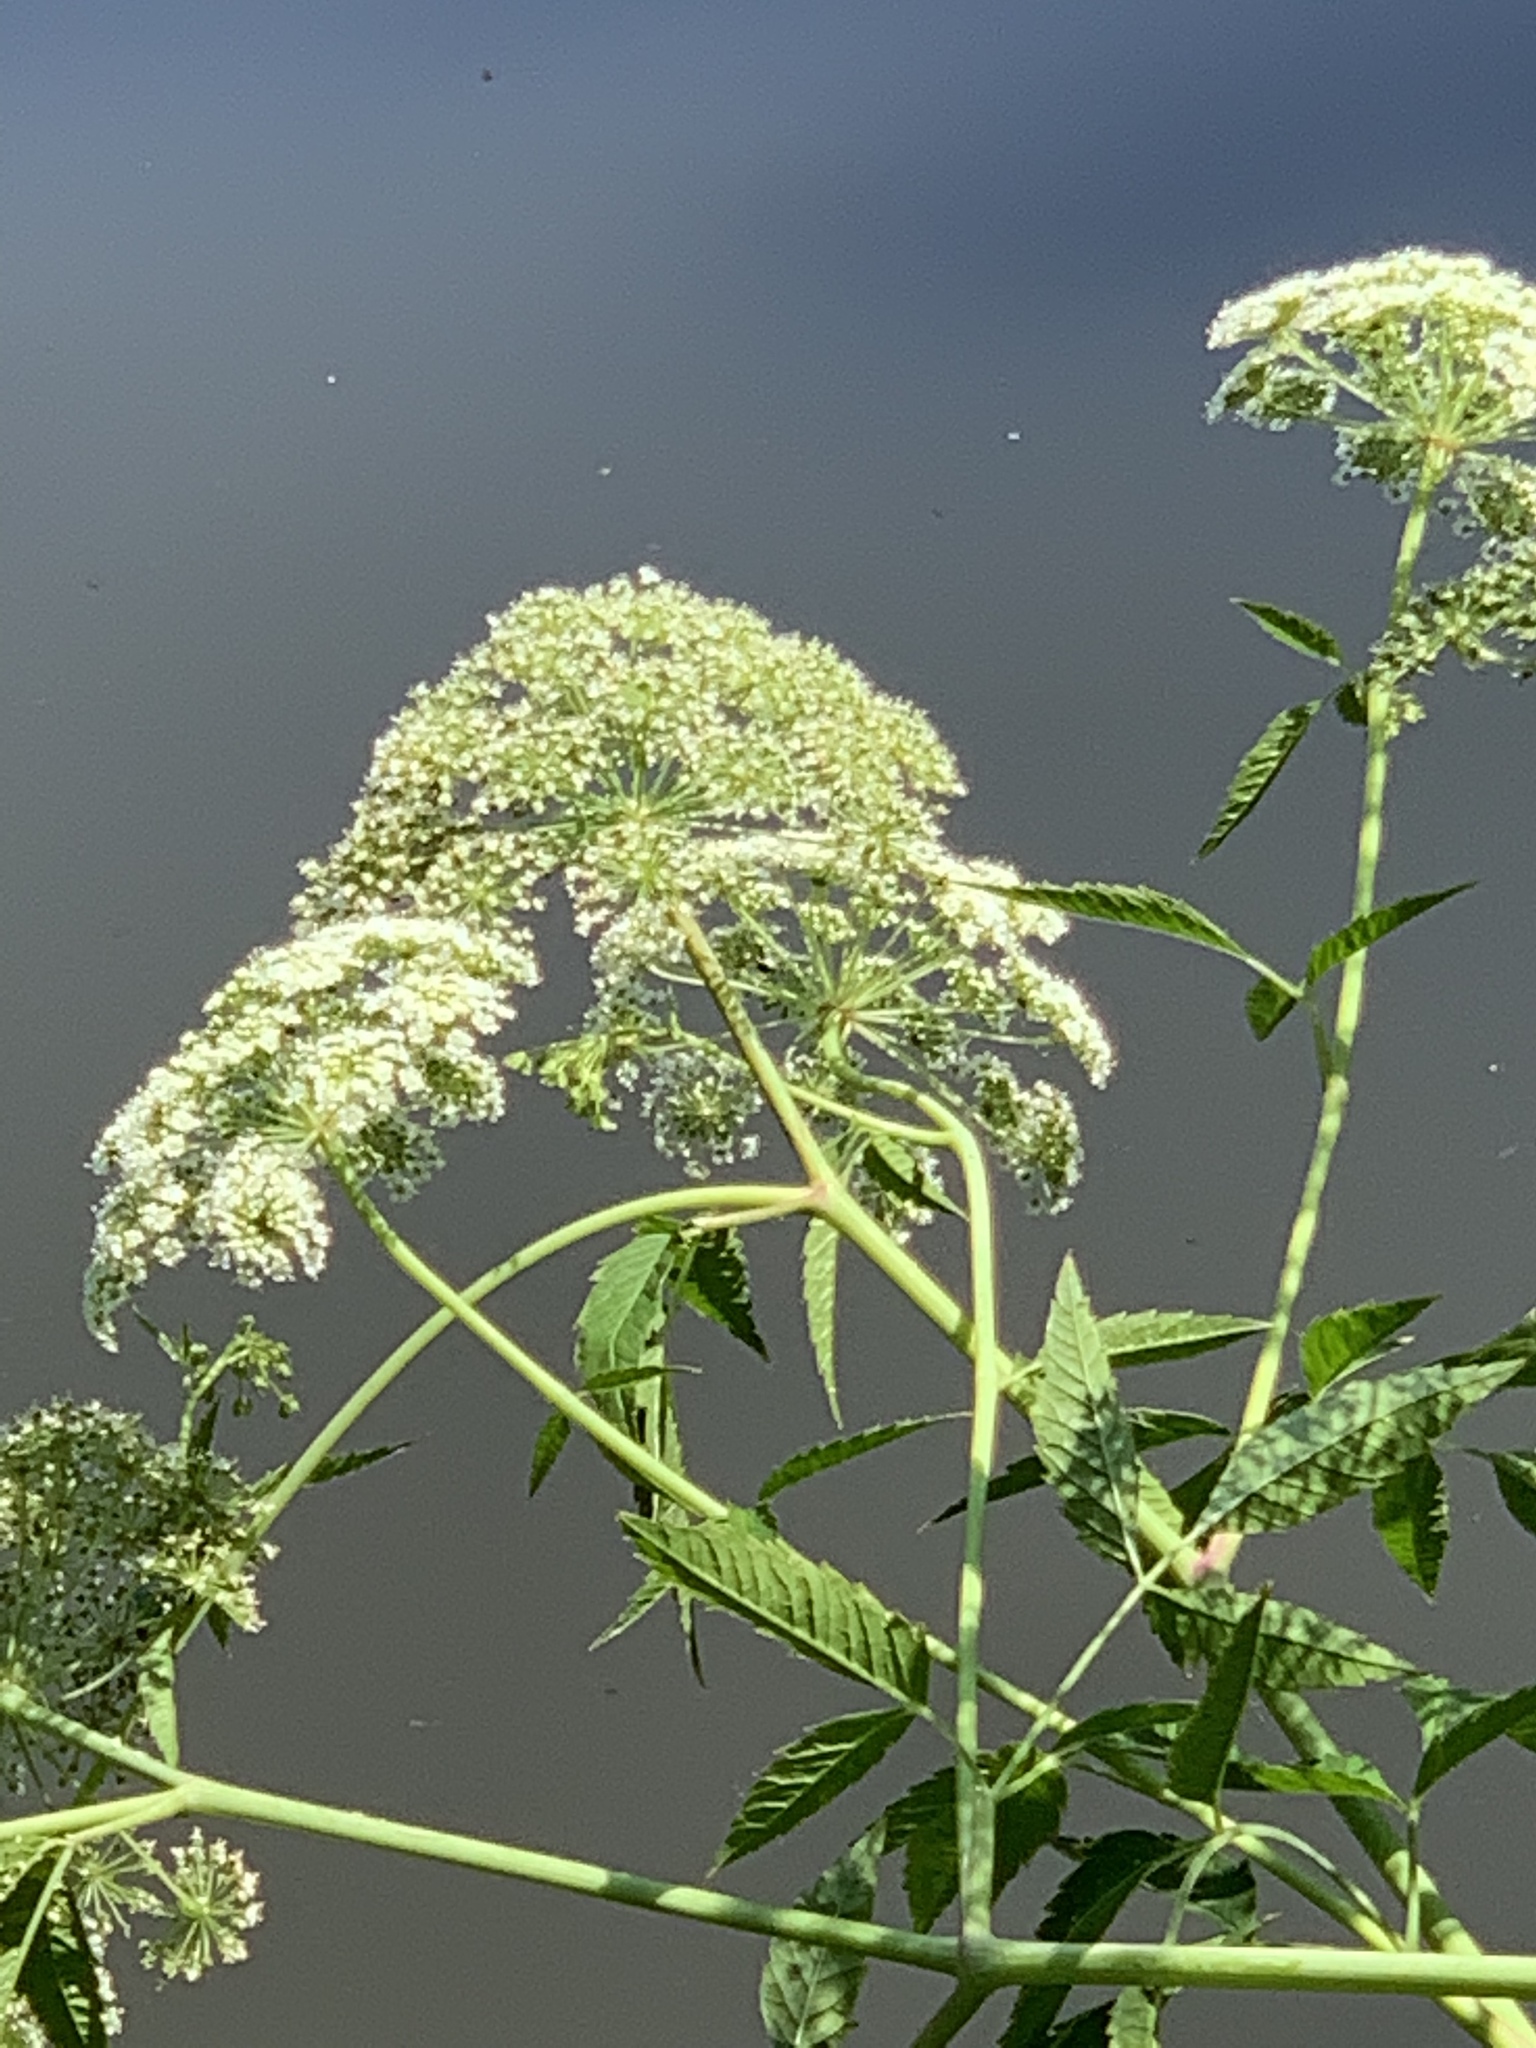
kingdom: Plantae
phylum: Tracheophyta
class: Magnoliopsida
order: Apiales
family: Apiaceae
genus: Cicuta
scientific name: Cicuta maculata
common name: Spotted cowbane
